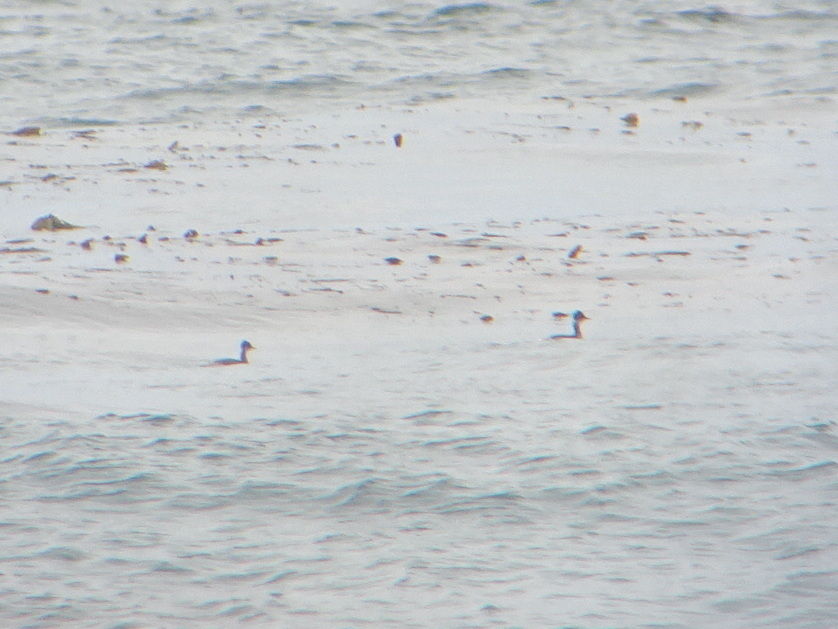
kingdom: Animalia
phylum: Chordata
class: Aves
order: Podicipediformes
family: Podicipedidae
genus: Podiceps
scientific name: Podiceps nigricollis
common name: Black-necked grebe
